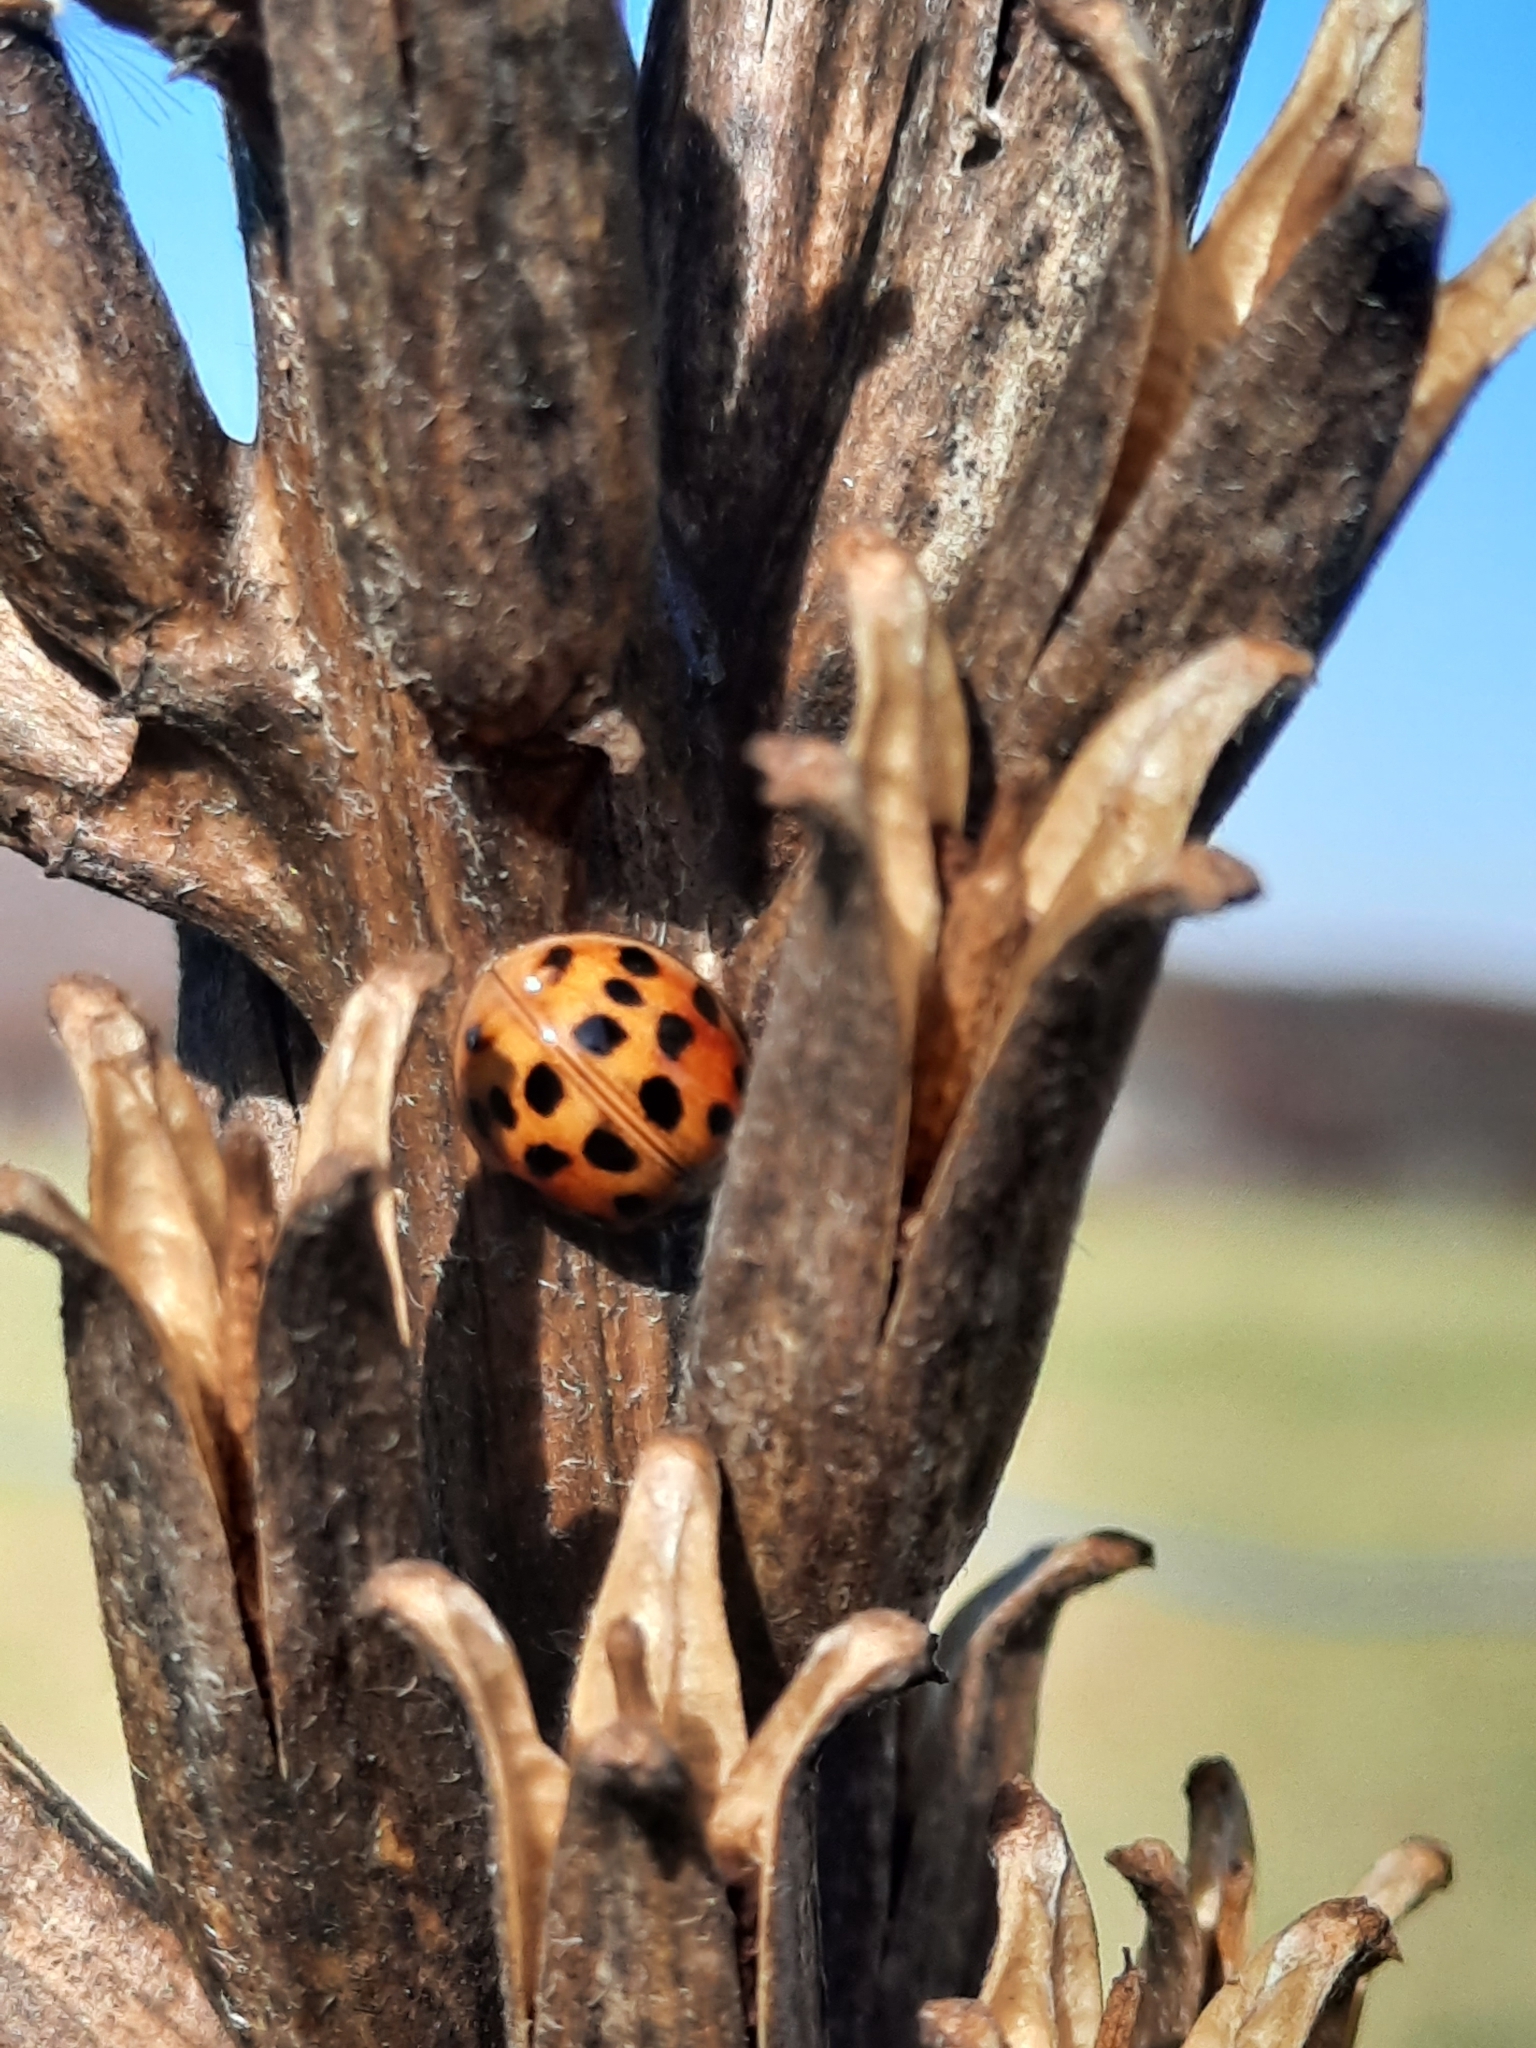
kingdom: Animalia
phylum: Arthropoda
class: Insecta
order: Coleoptera
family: Coccinellidae
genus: Harmonia
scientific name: Harmonia axyridis
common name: Harlequin ladybird
